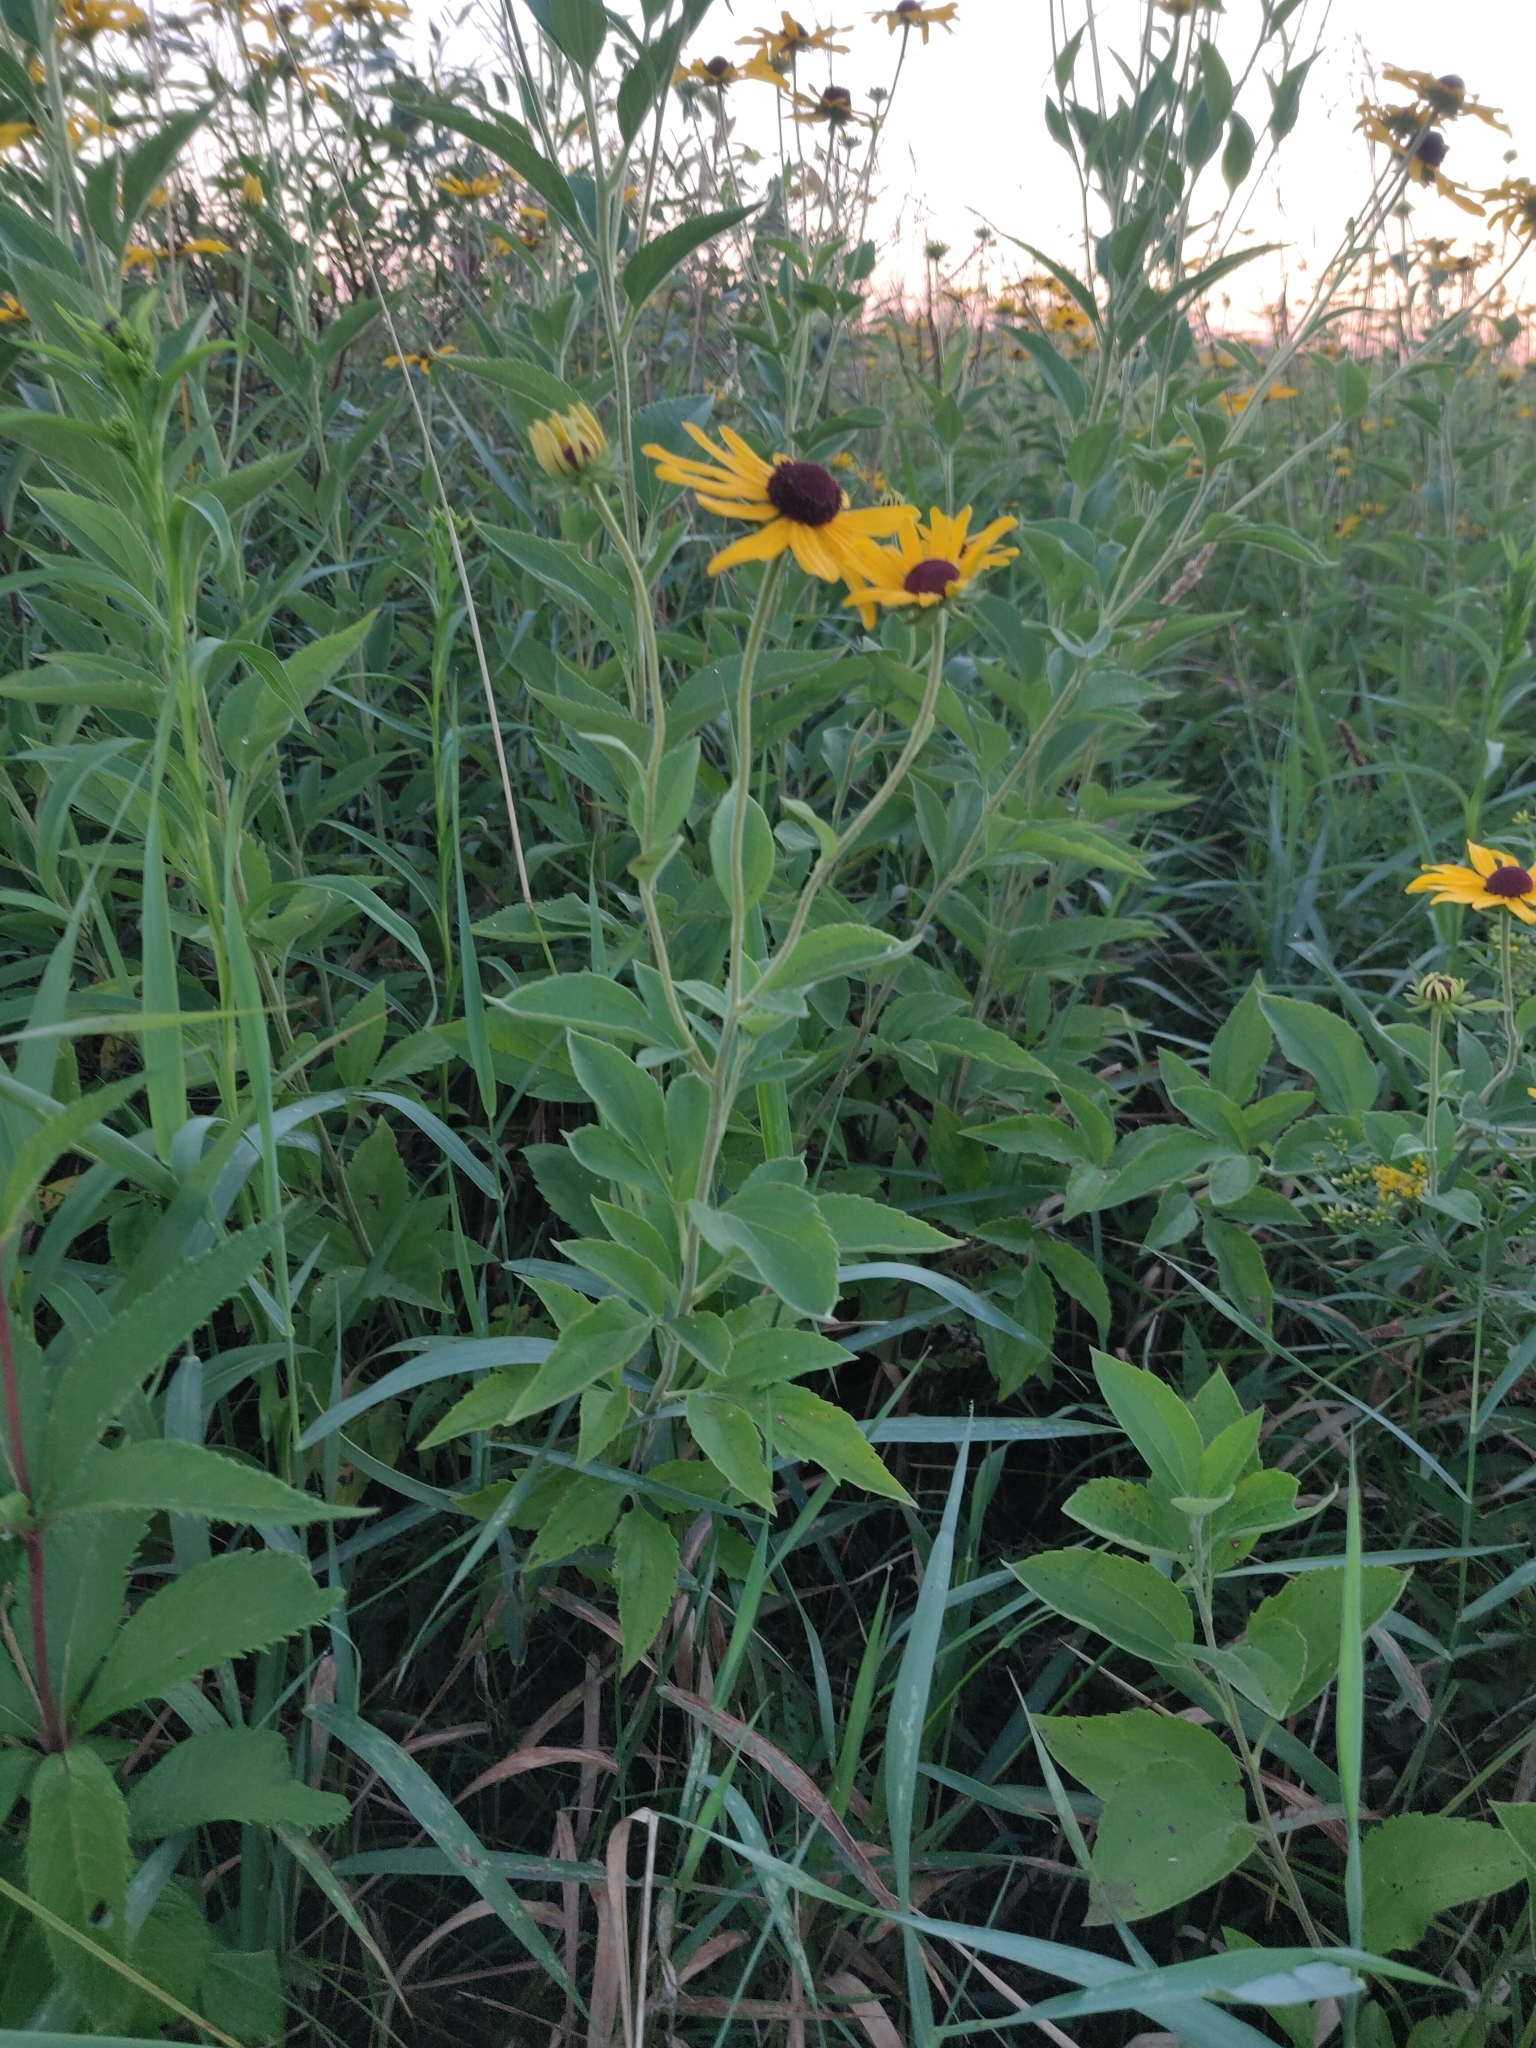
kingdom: Plantae
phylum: Tracheophyta
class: Magnoliopsida
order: Asterales
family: Asteraceae
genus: Rudbeckia
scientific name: Rudbeckia subtomentosa
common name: Sweet coneflower
